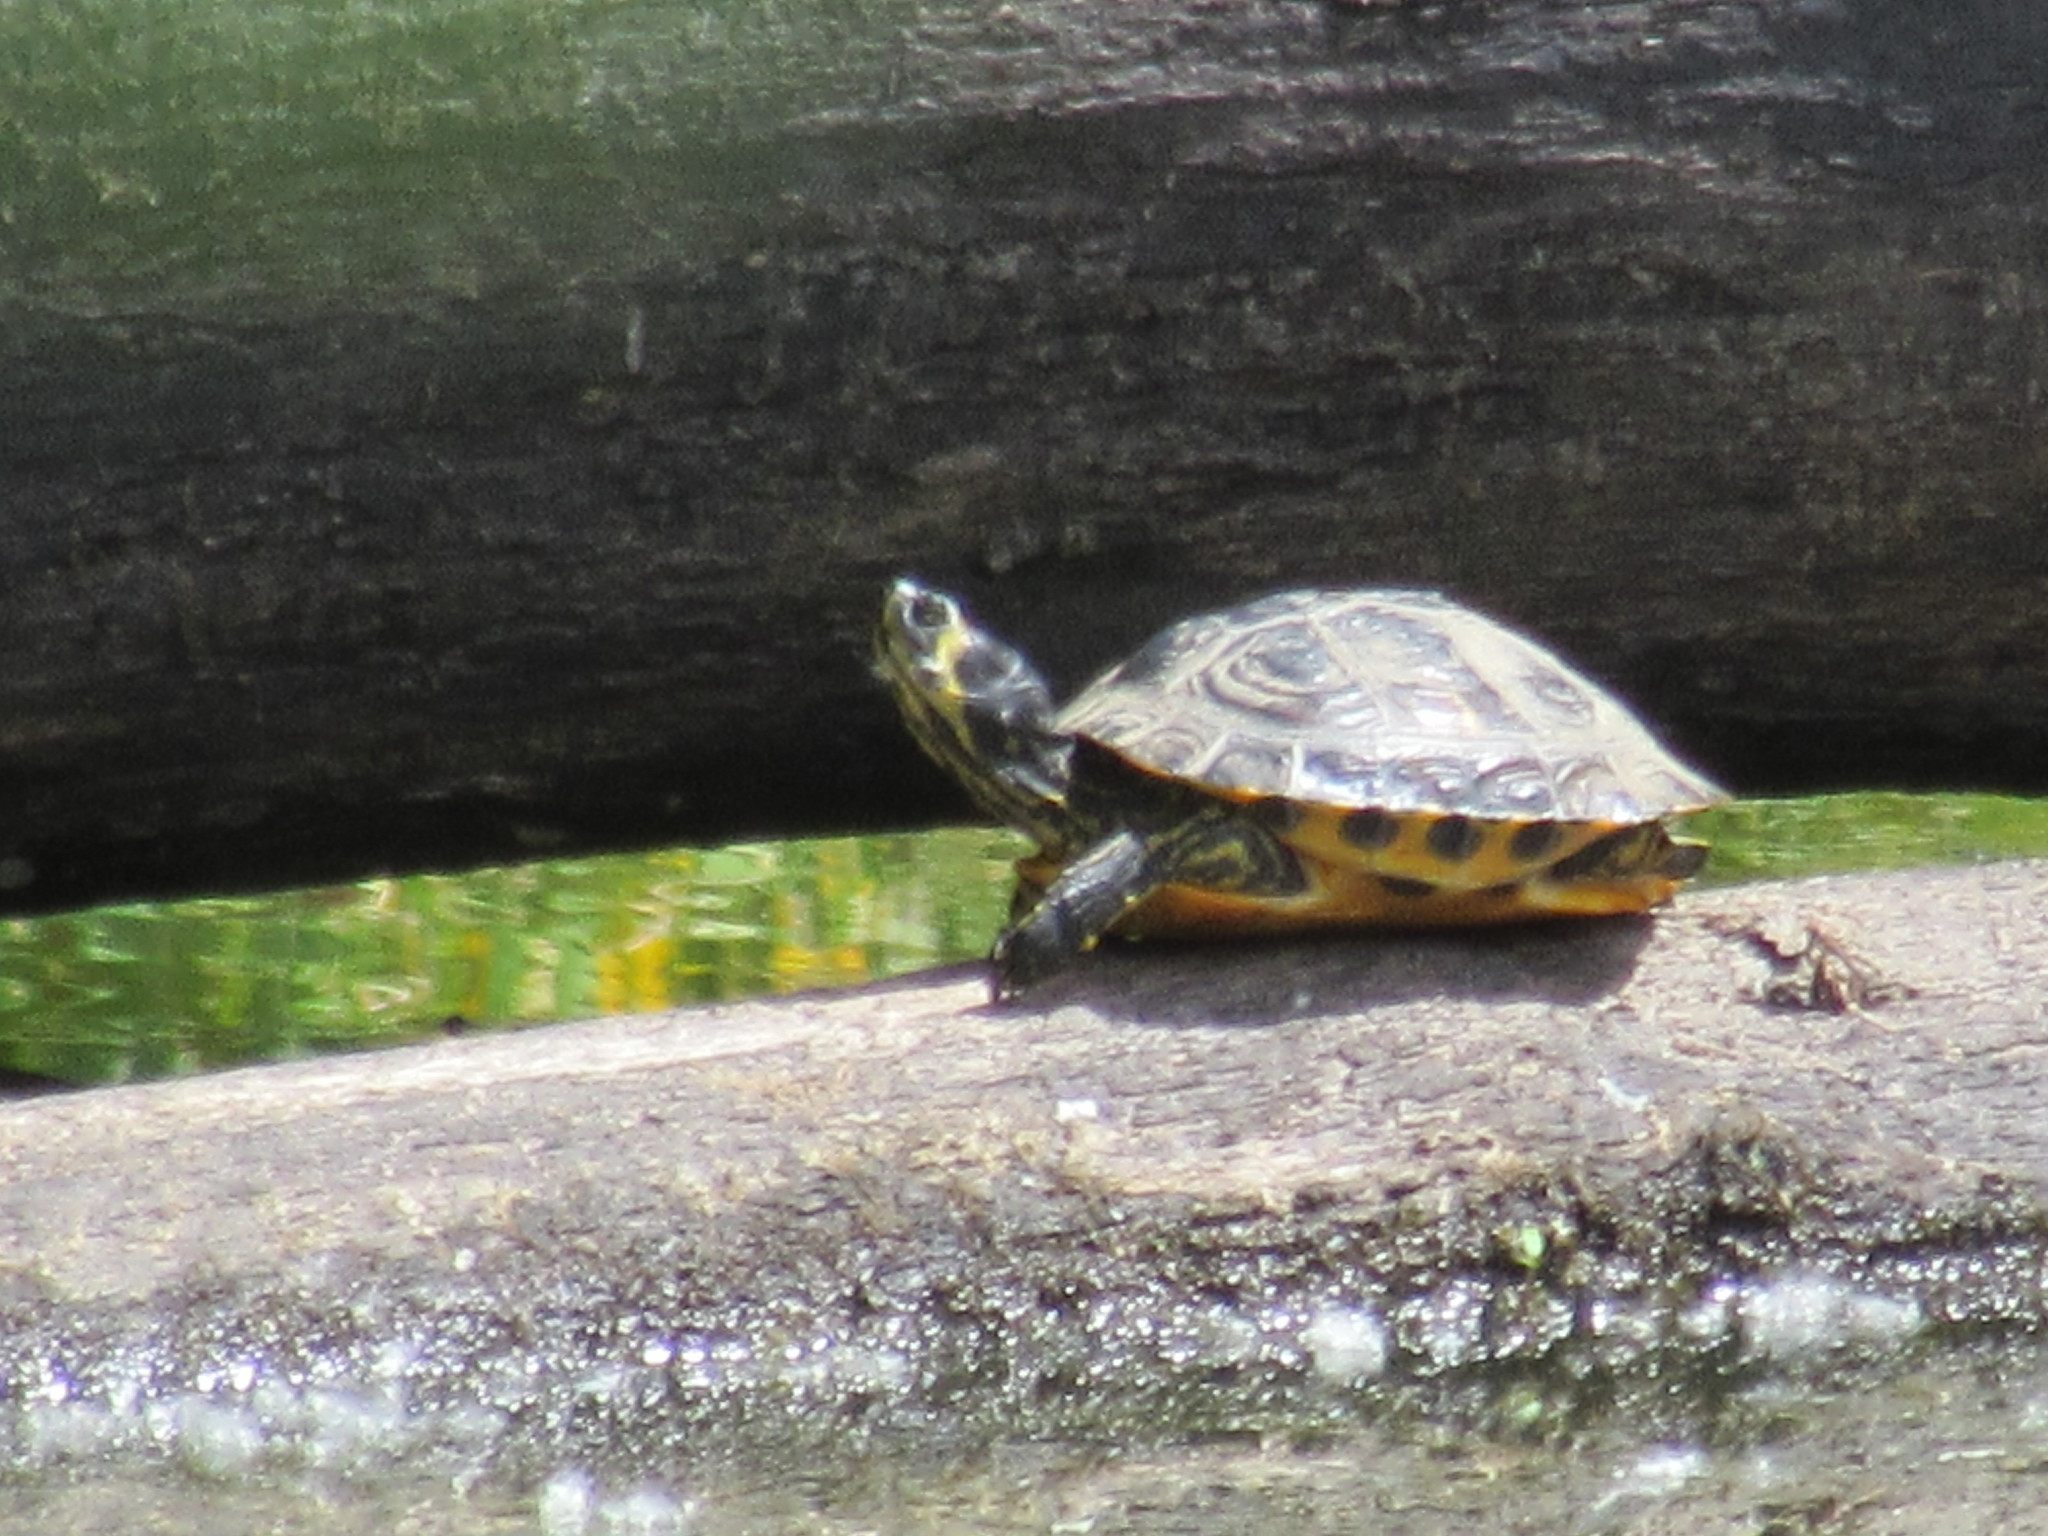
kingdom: Animalia
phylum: Chordata
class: Testudines
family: Emydidae
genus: Trachemys
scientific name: Trachemys scripta
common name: Slider
